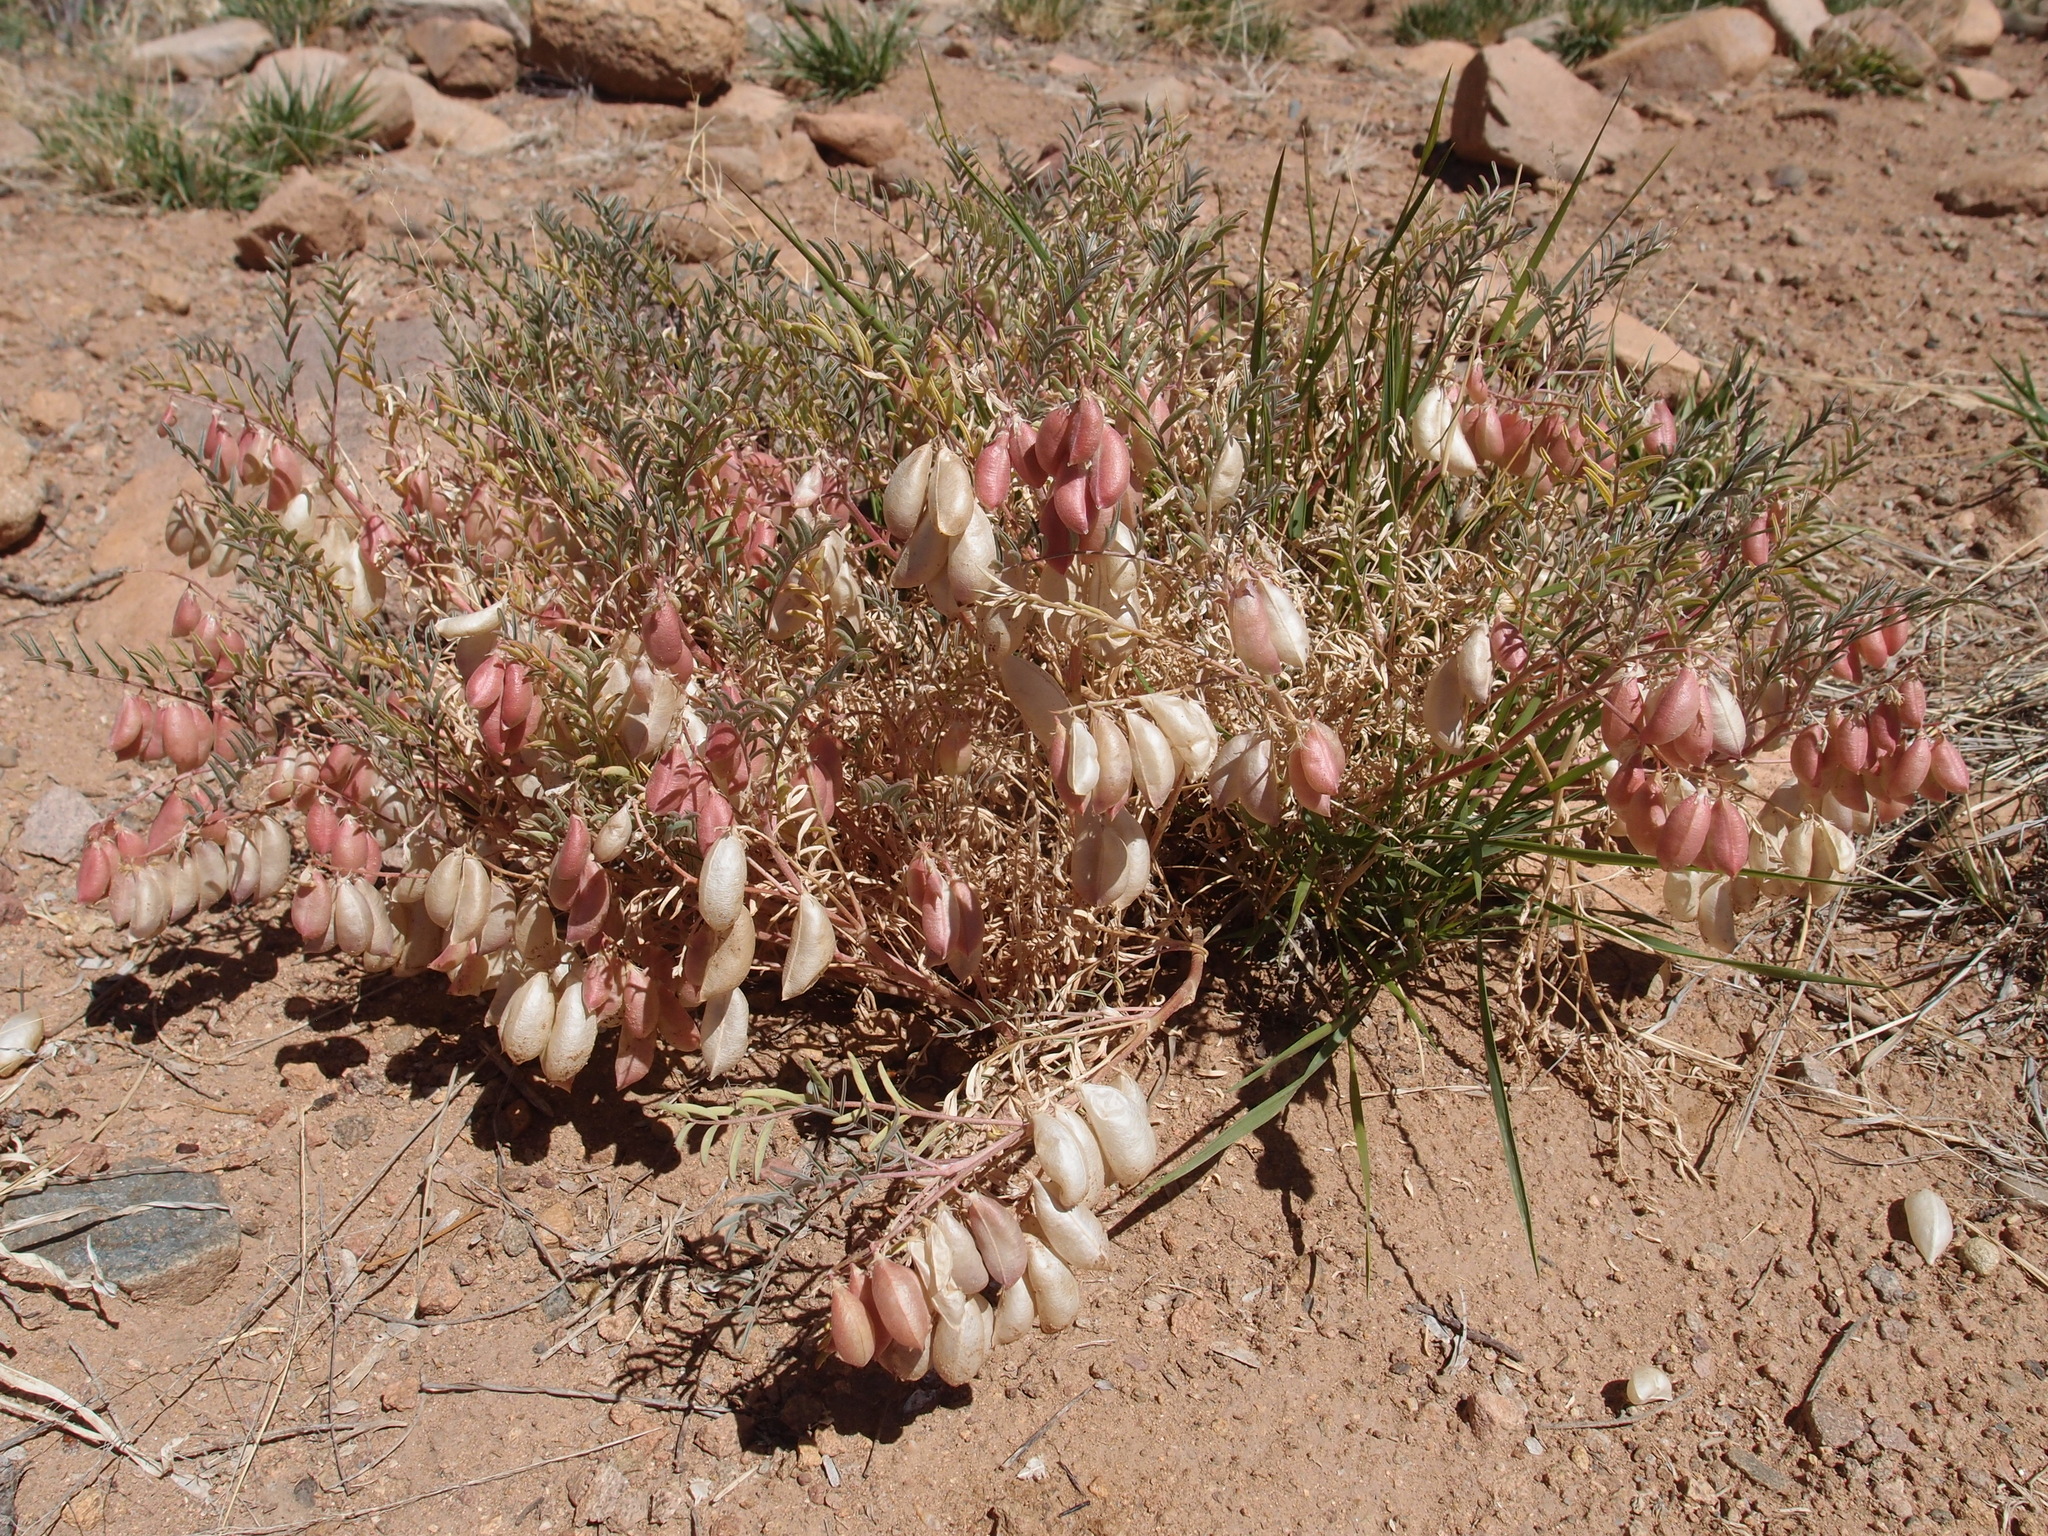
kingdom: Plantae
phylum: Tracheophyta
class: Magnoliopsida
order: Fabales
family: Fabaceae
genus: Astragalus
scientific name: Astragalus allochrous
